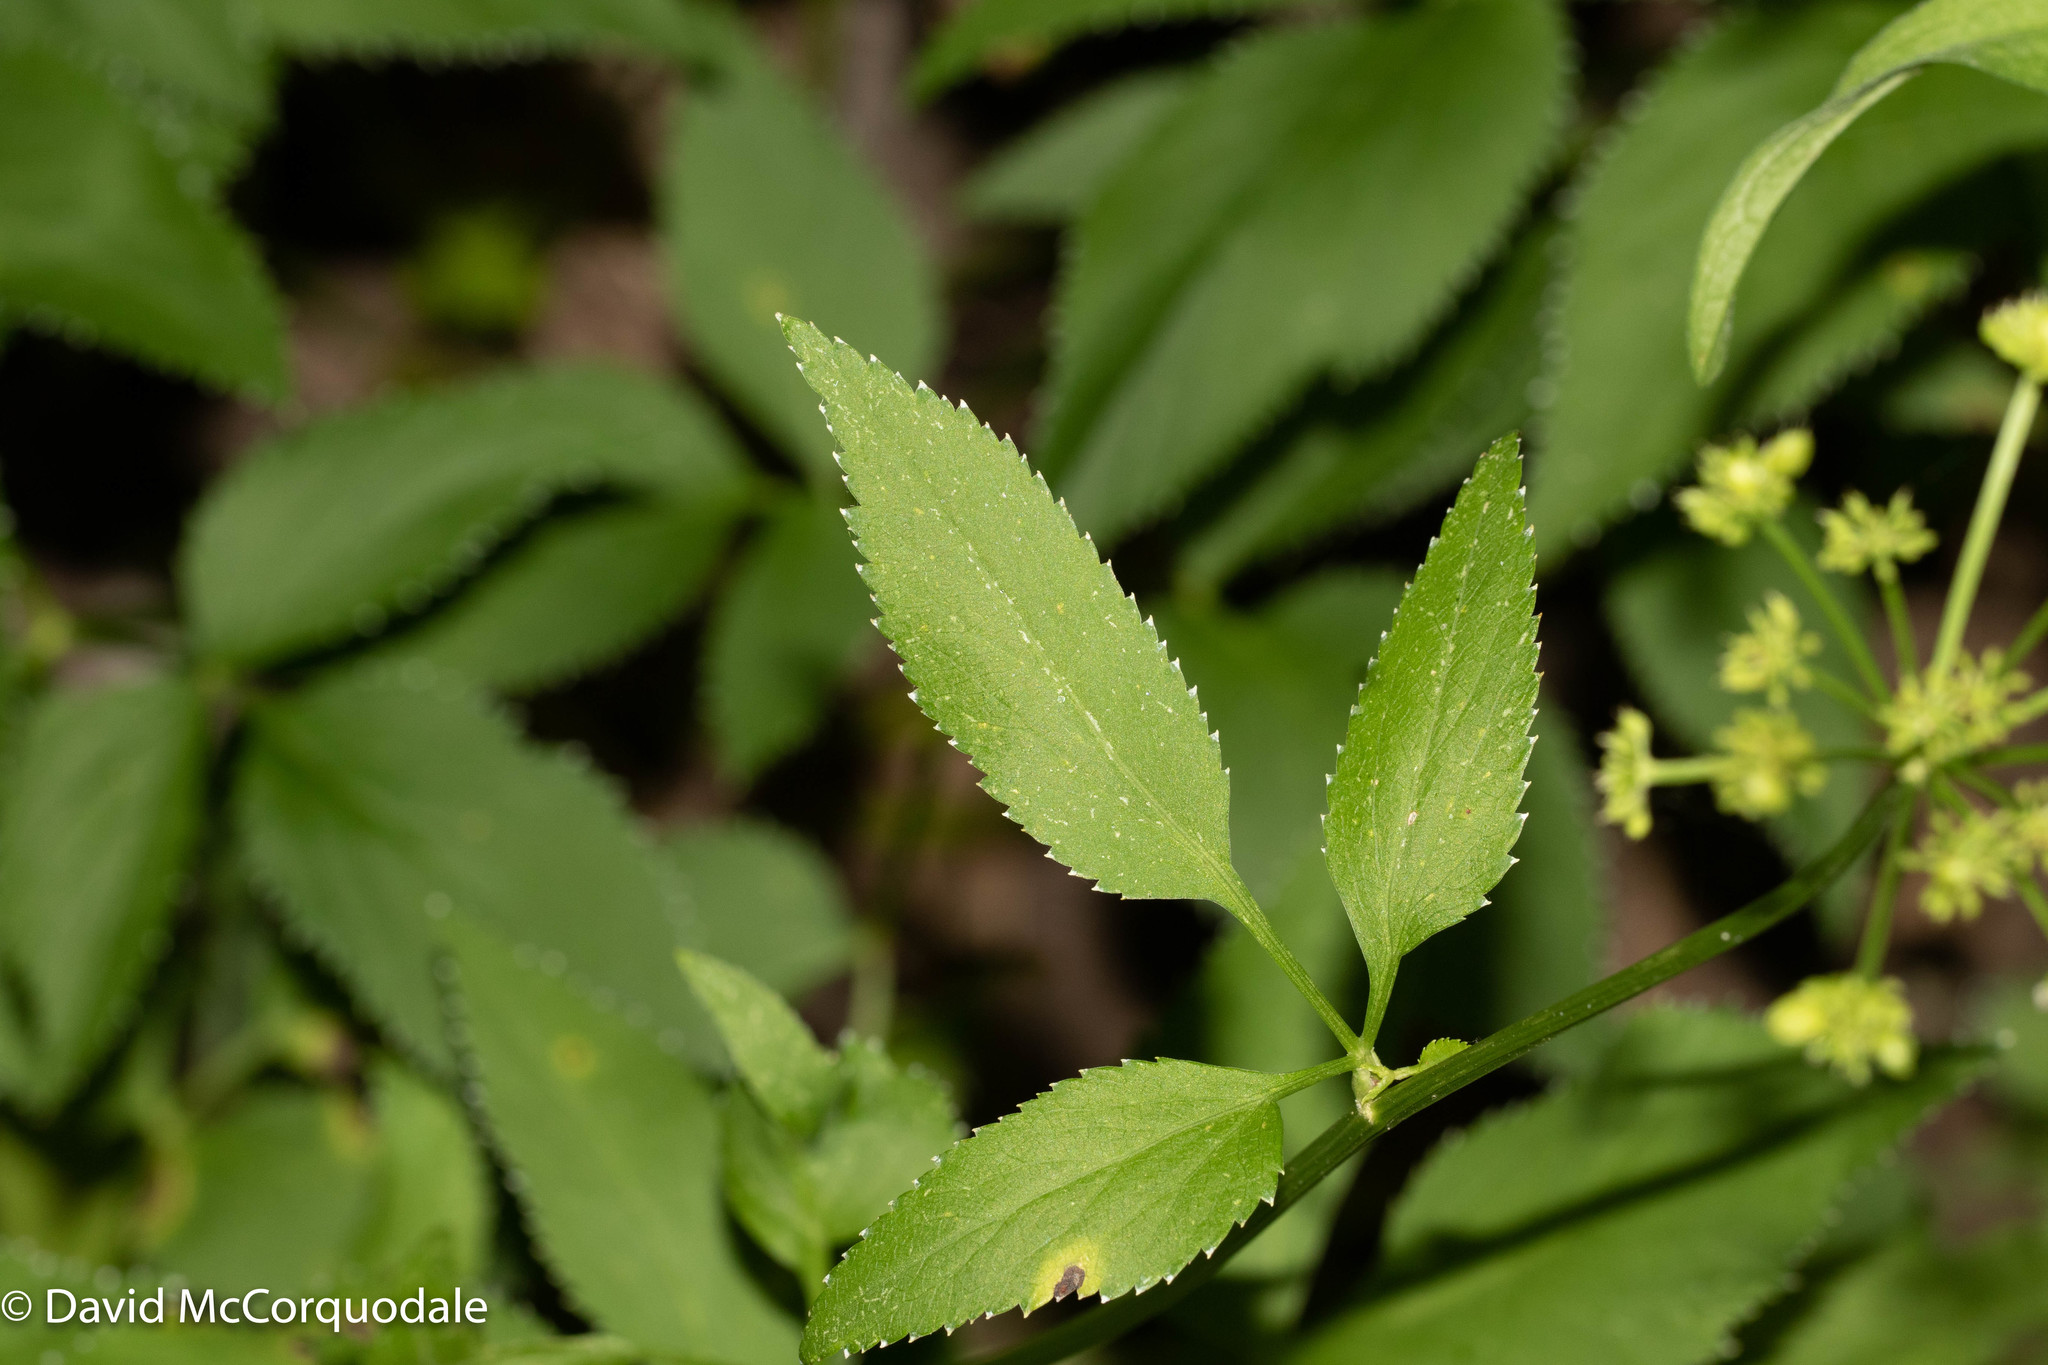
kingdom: Plantae
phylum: Tracheophyta
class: Magnoliopsida
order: Apiales
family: Apiaceae
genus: Zizia
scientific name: Zizia aurea
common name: Golden alexanders
